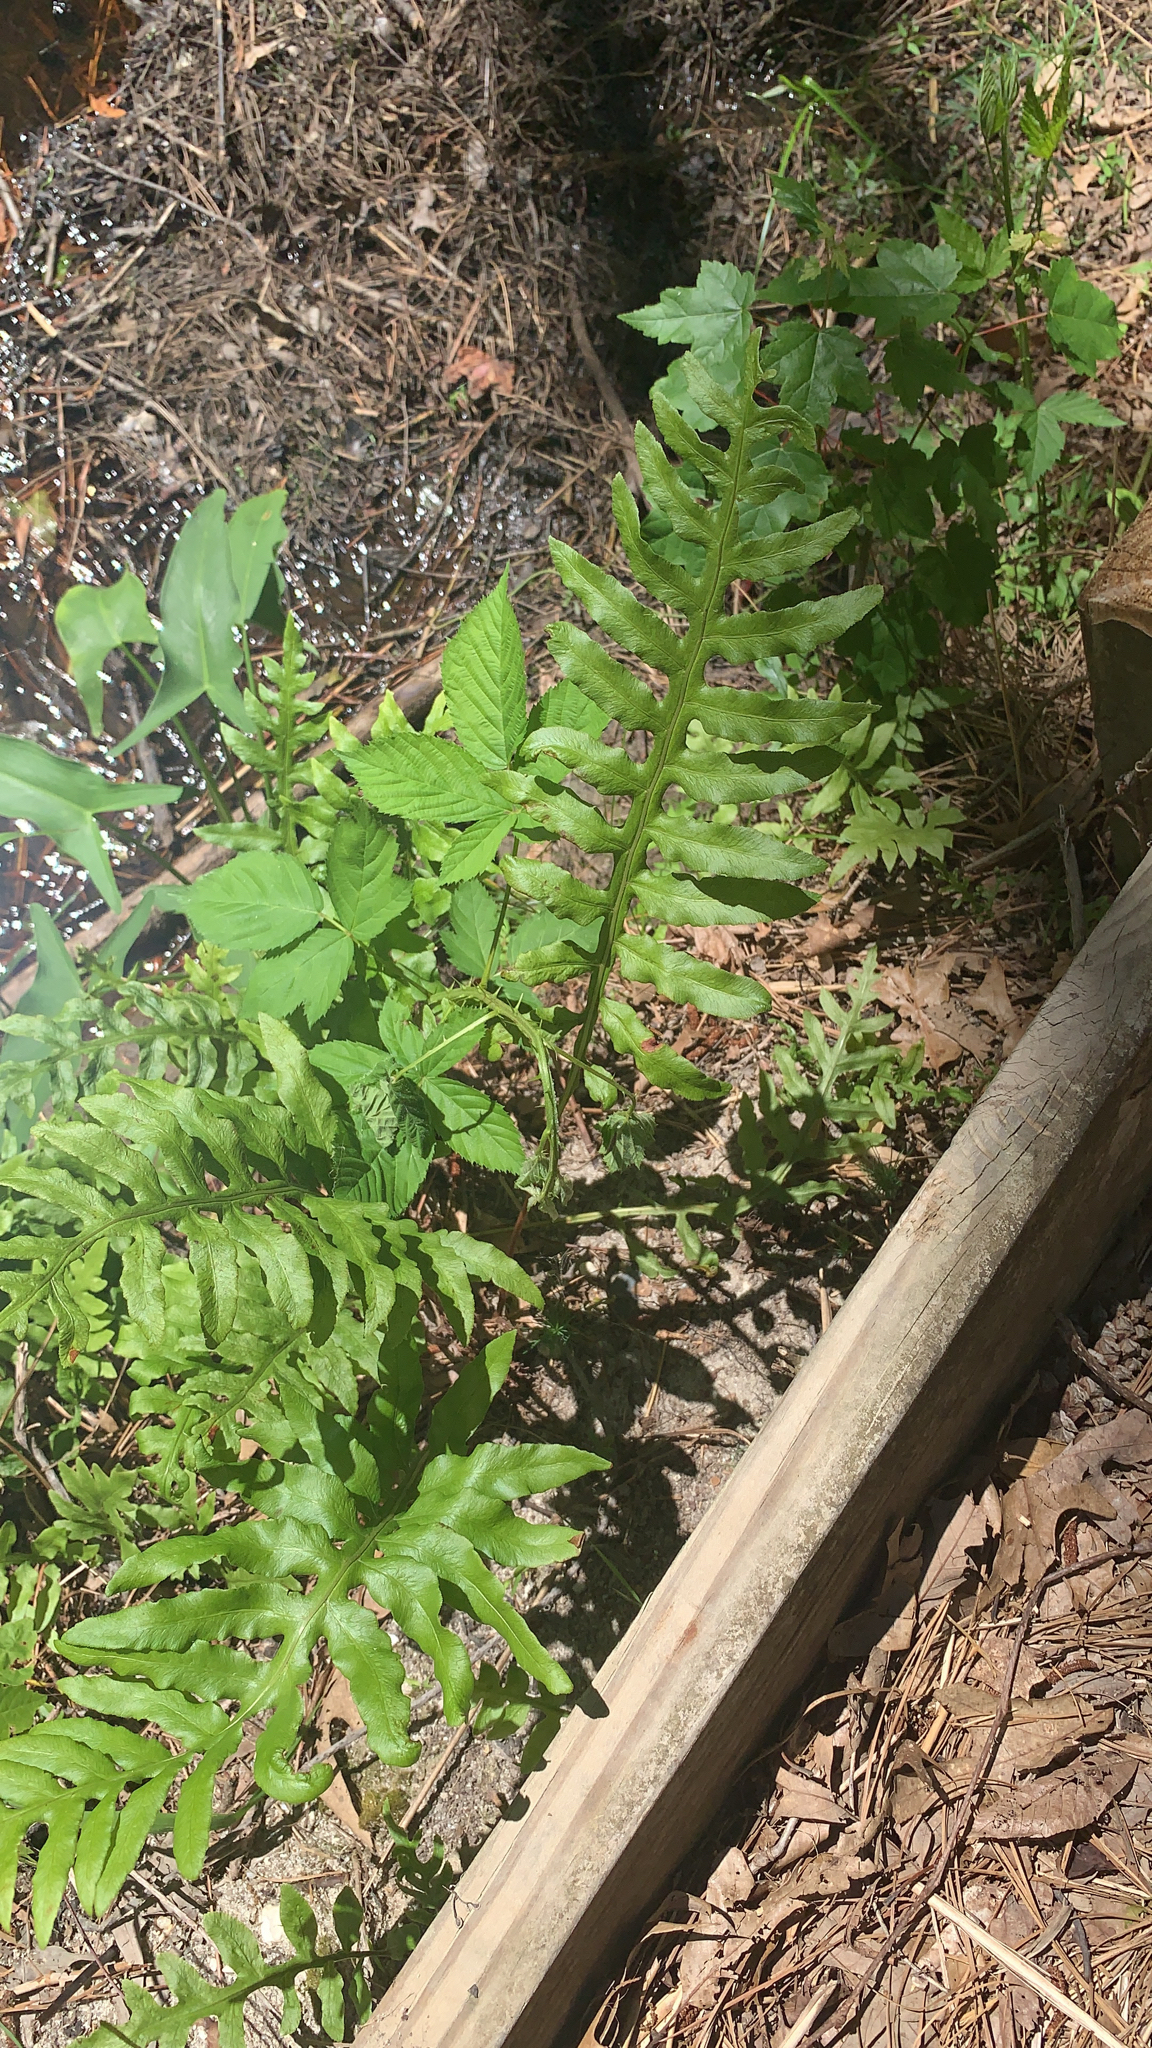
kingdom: Plantae
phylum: Tracheophyta
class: Polypodiopsida
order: Polypodiales
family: Blechnaceae
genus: Lorinseria
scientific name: Lorinseria areolata
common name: Dwarf chain fern
